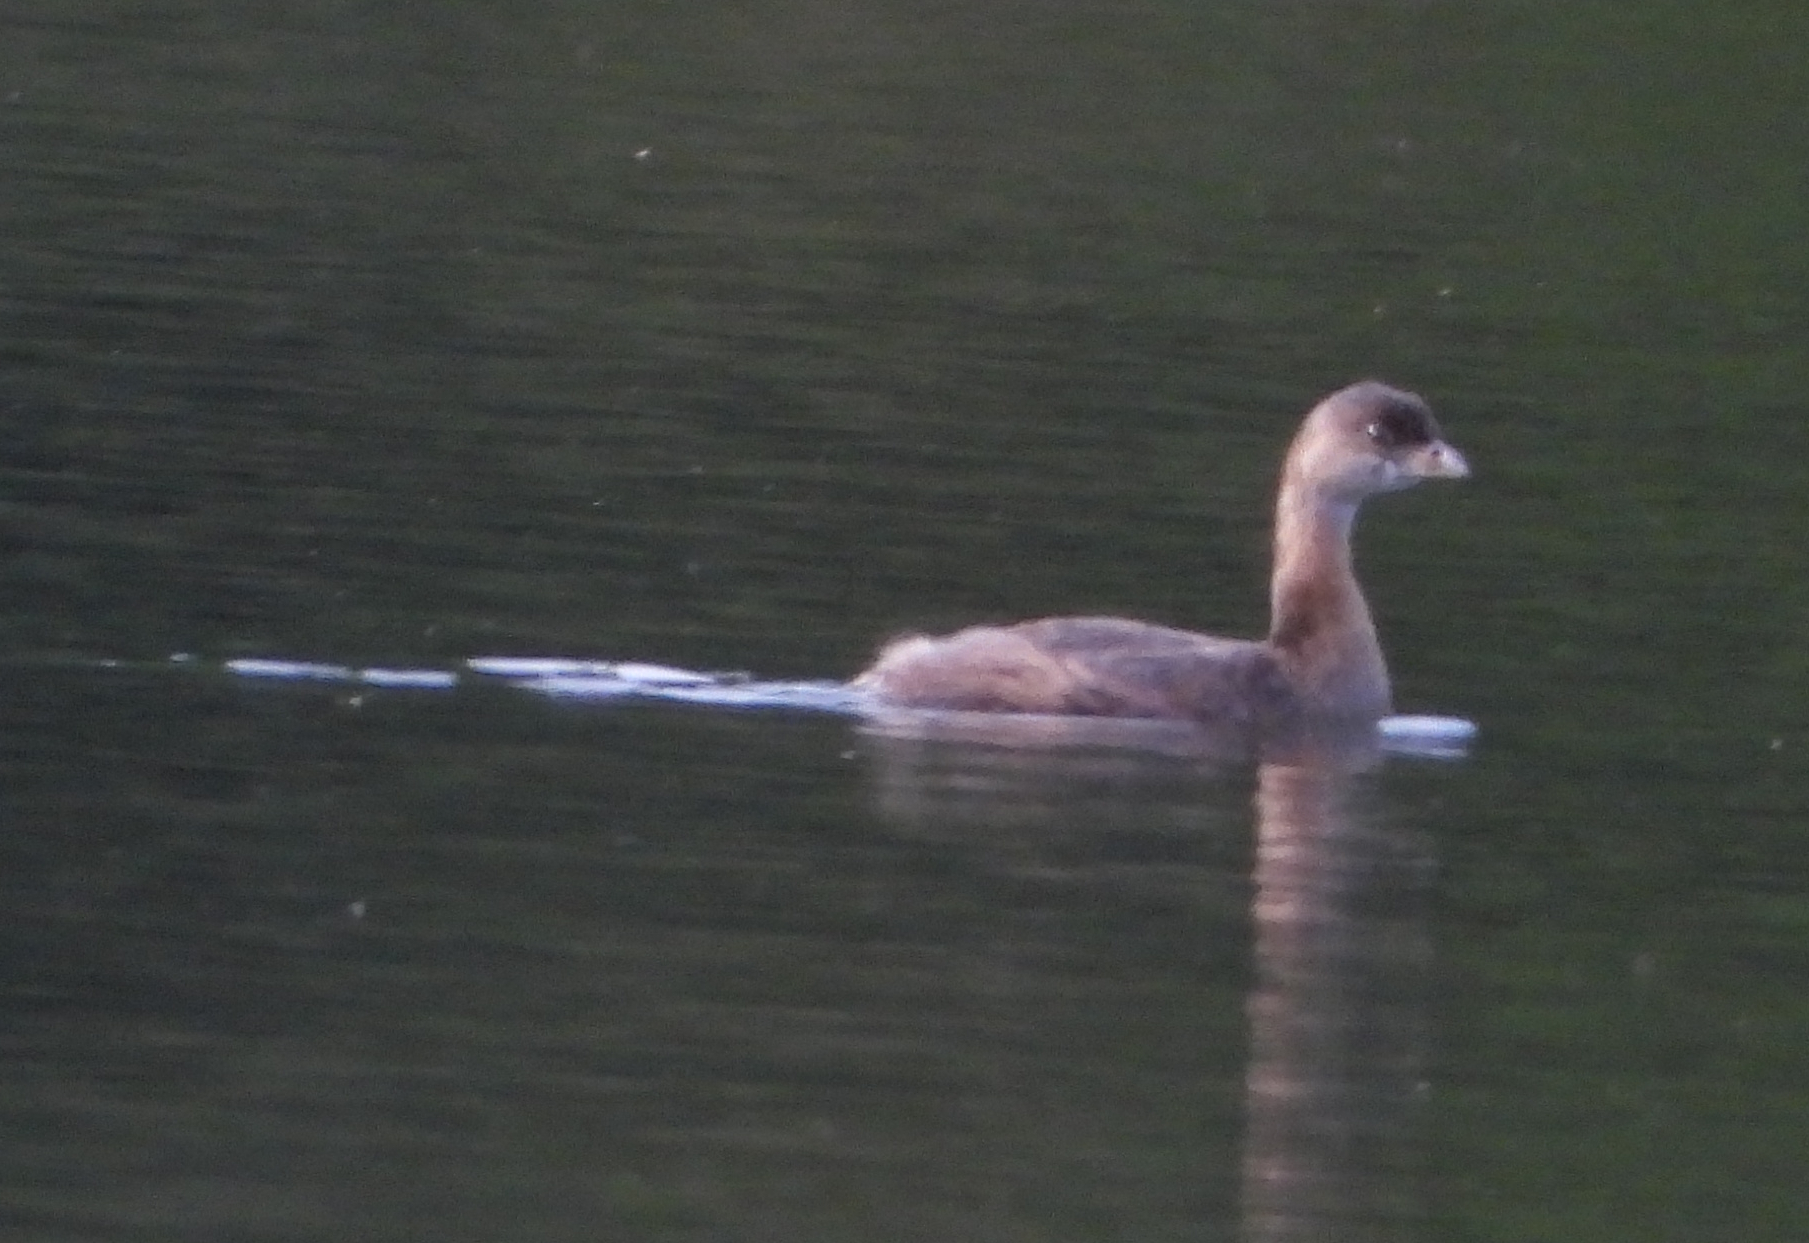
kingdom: Animalia
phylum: Chordata
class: Aves
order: Podicipediformes
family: Podicipedidae
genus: Podilymbus
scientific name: Podilymbus podiceps
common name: Pied-billed grebe
